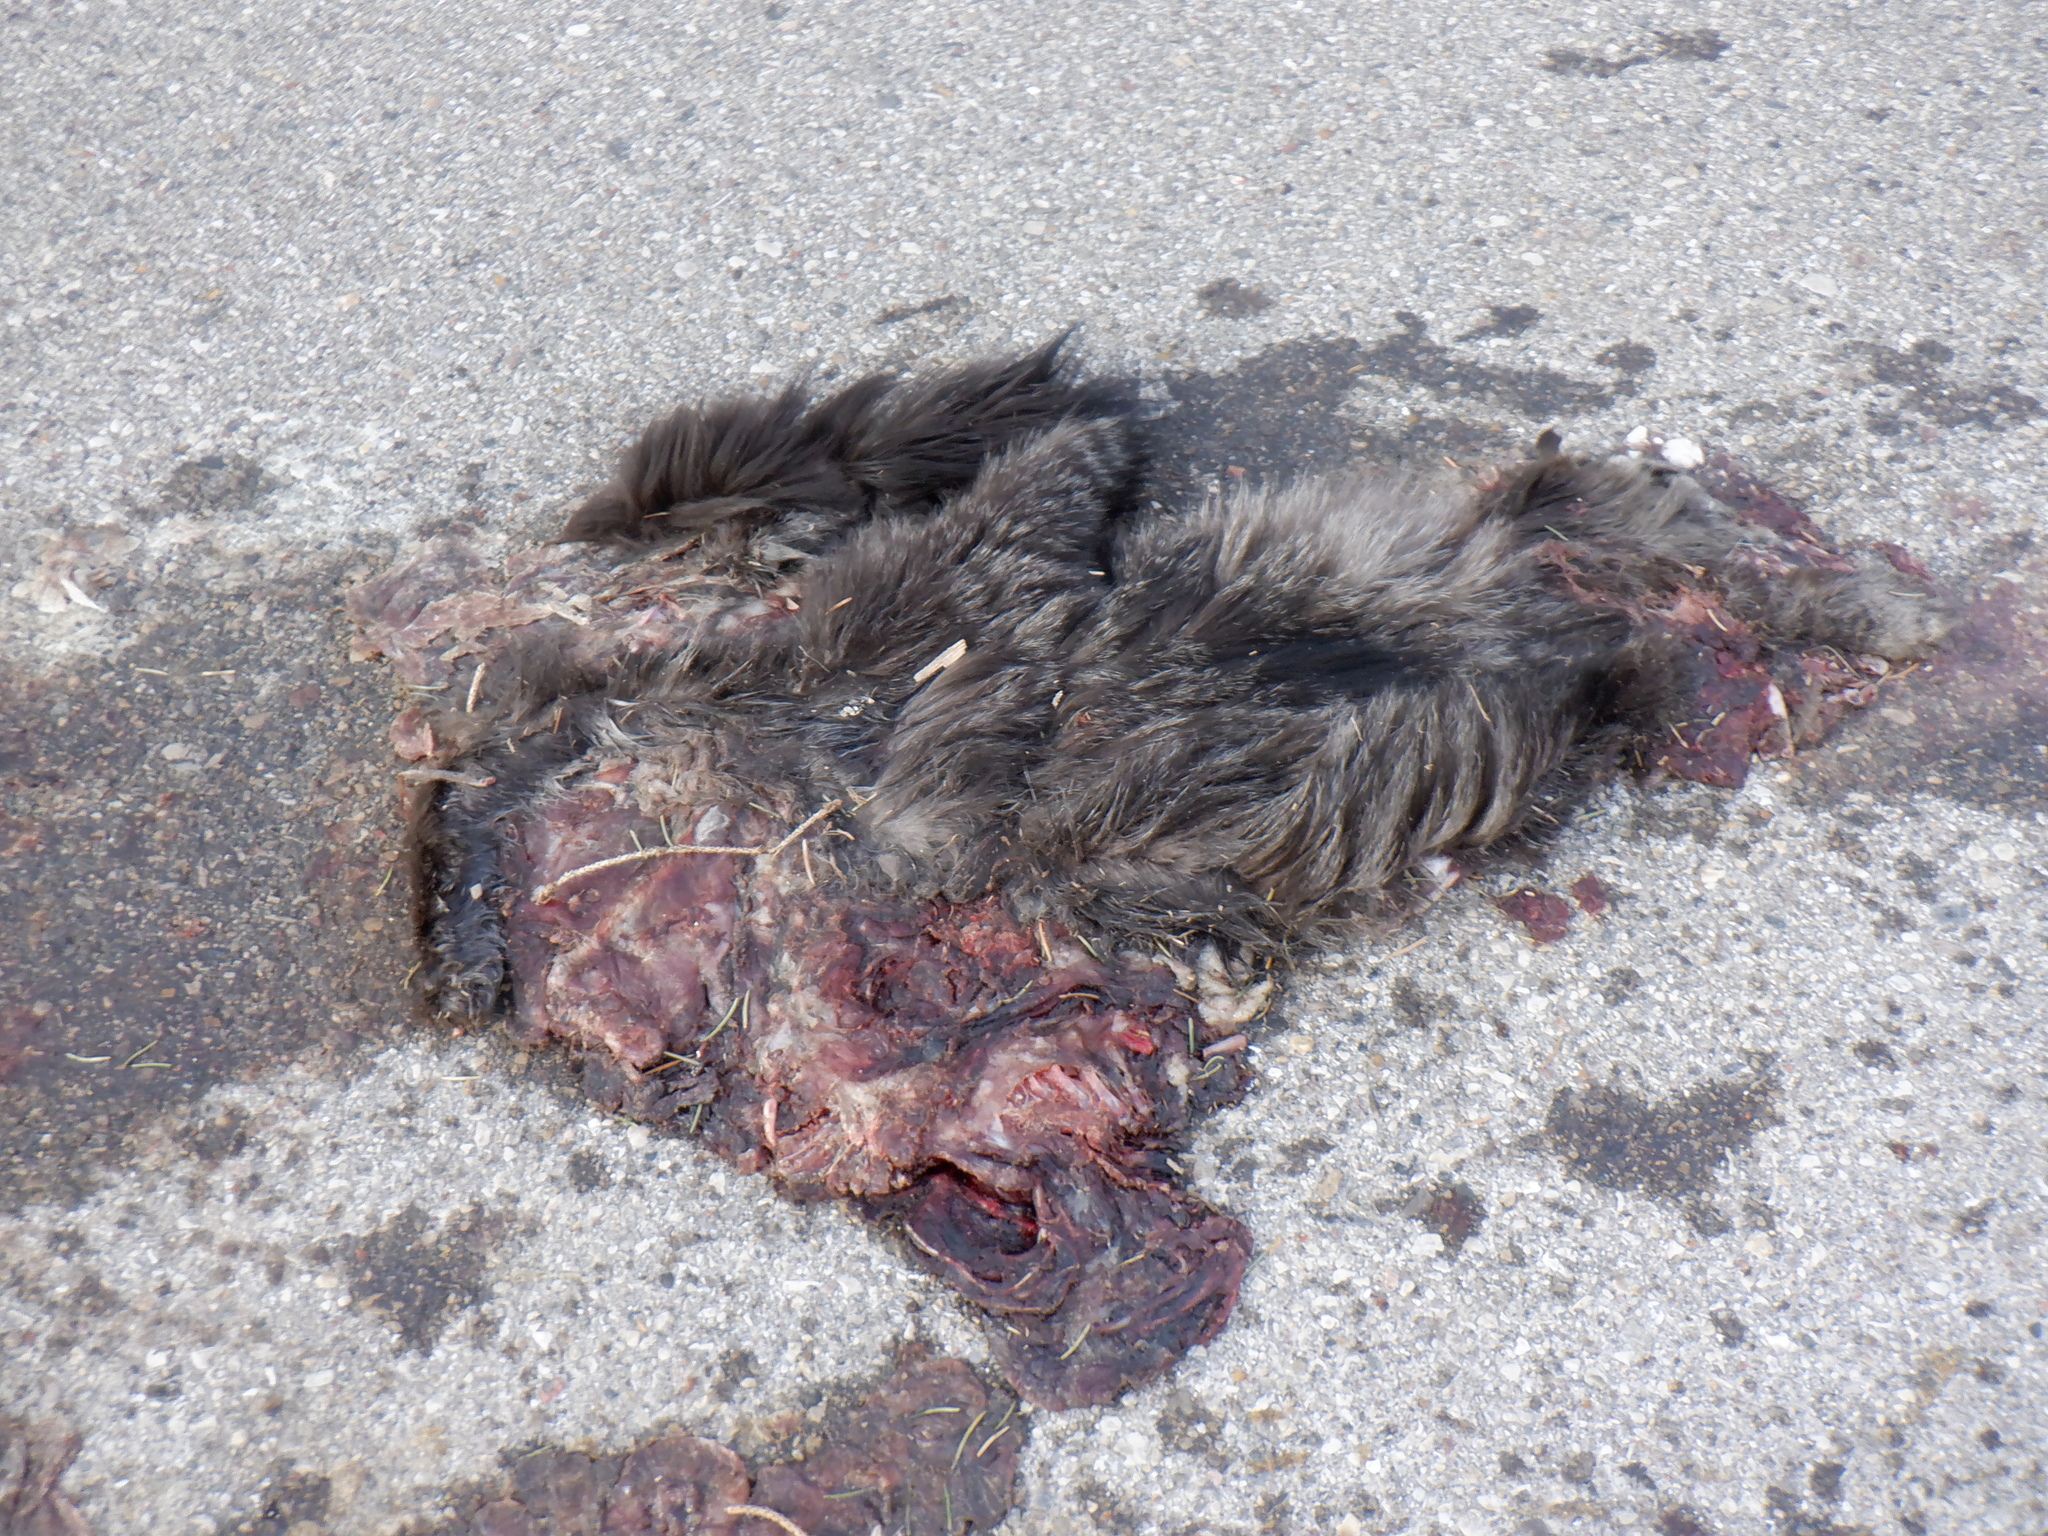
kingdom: Animalia
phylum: Chordata
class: Mammalia
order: Didelphimorphia
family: Didelphidae
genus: Didelphis
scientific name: Didelphis virginiana
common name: Virginia opossum
